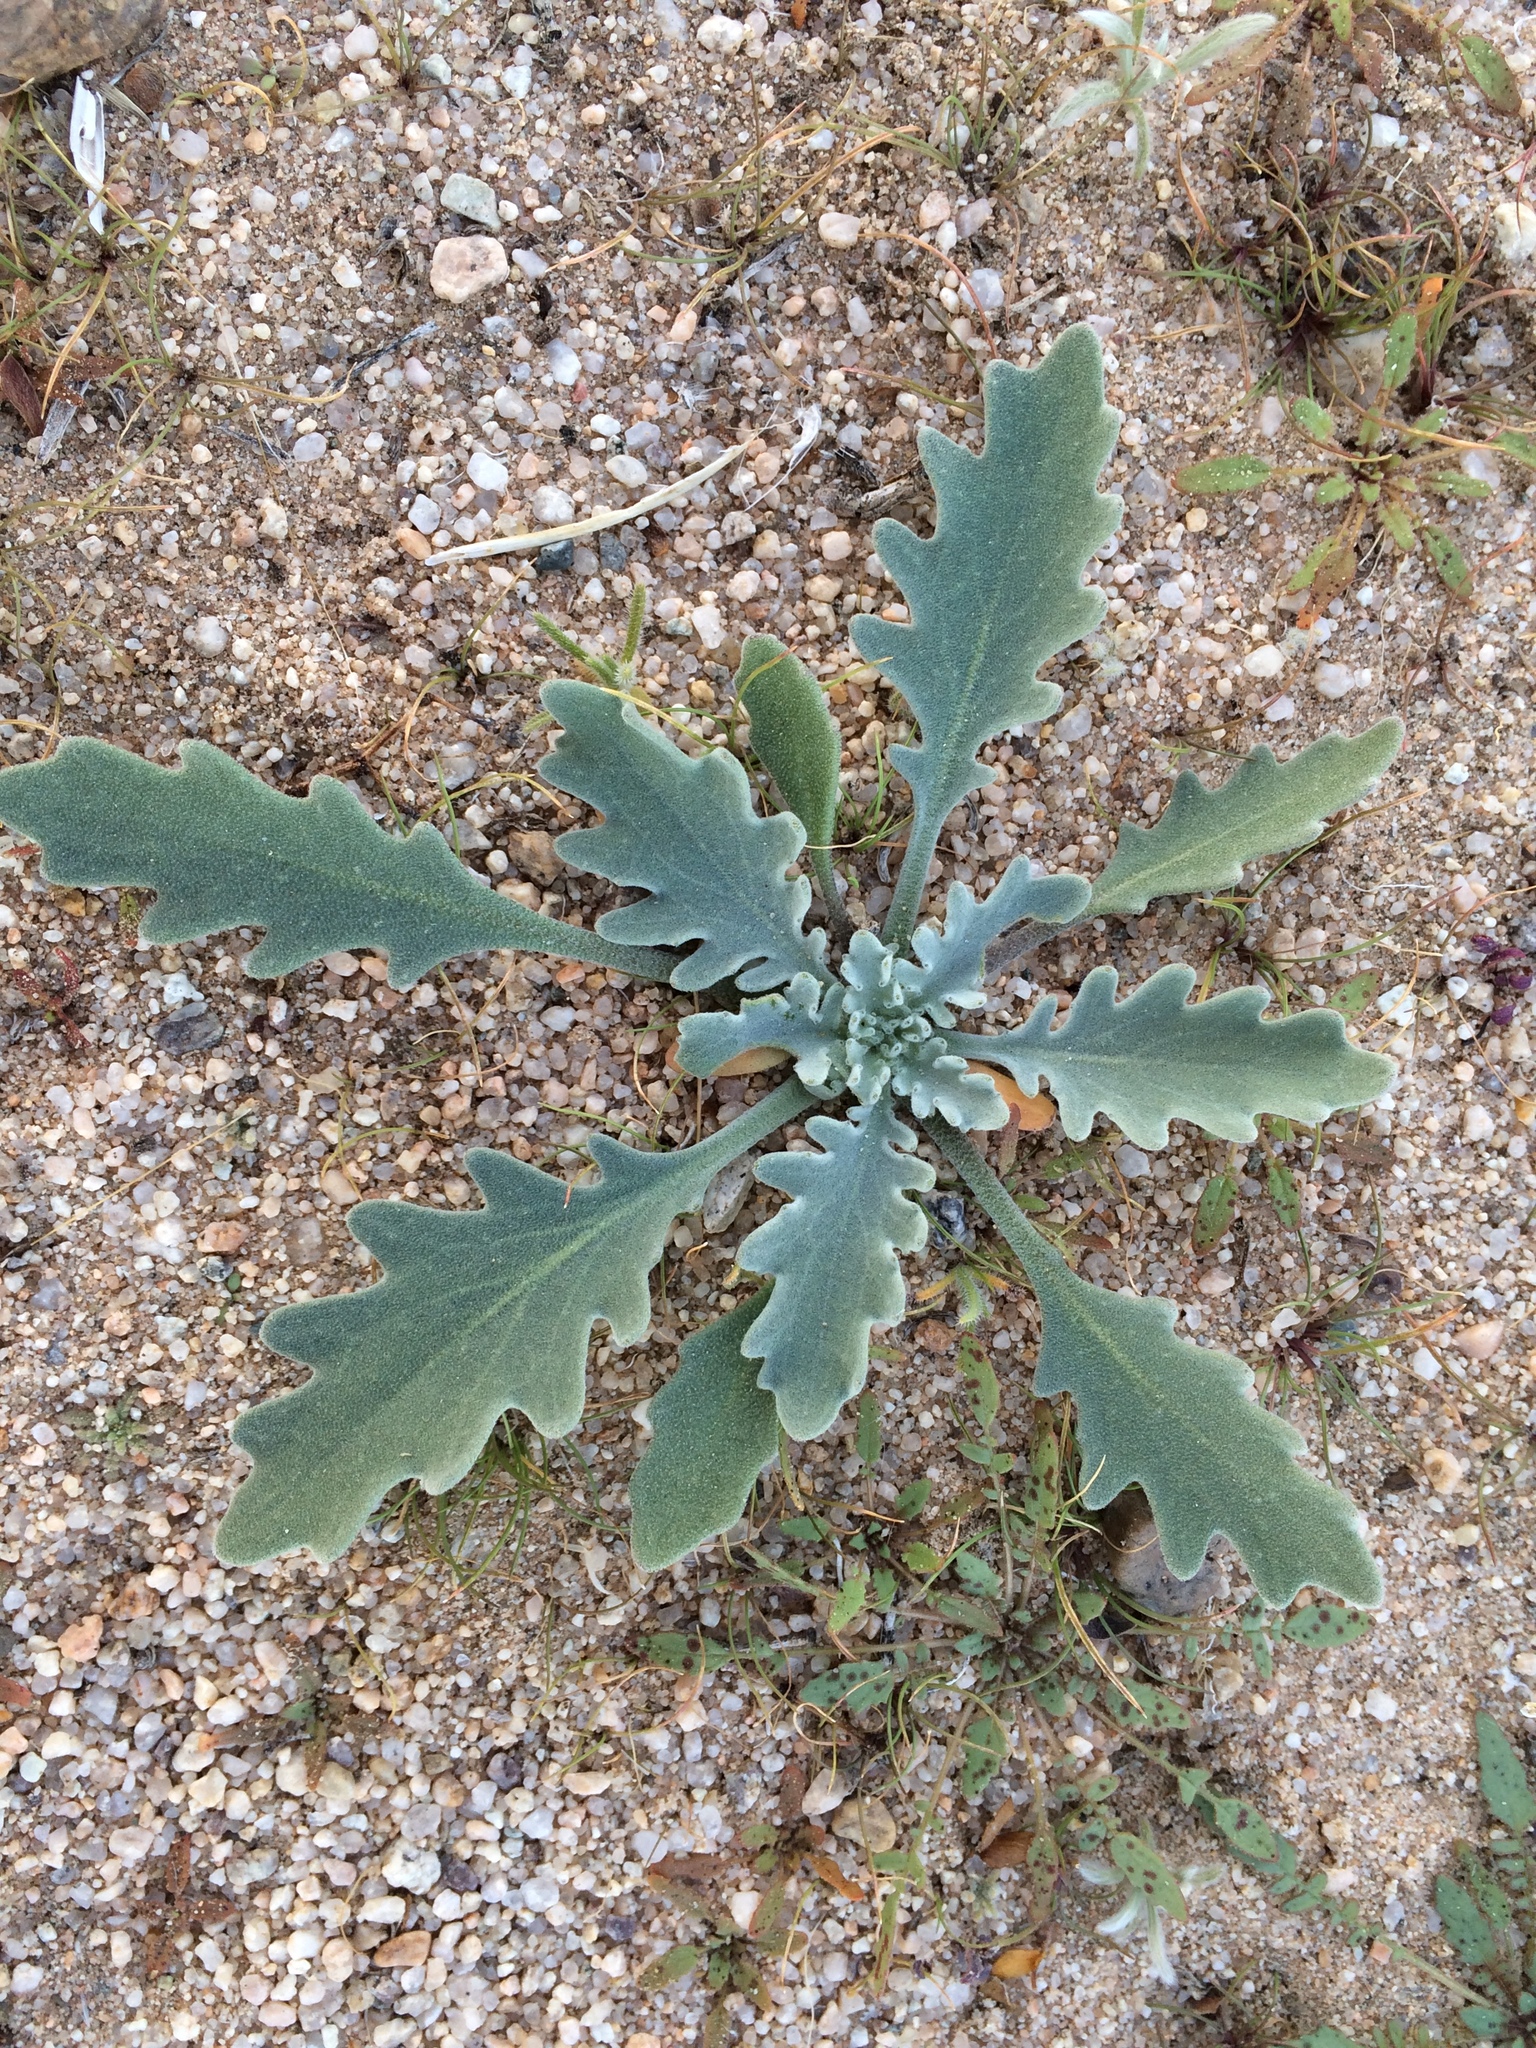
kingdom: Plantae
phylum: Tracheophyta
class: Magnoliopsida
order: Brassicales
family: Brassicaceae
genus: Dithyrea
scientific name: Dithyrea californica
